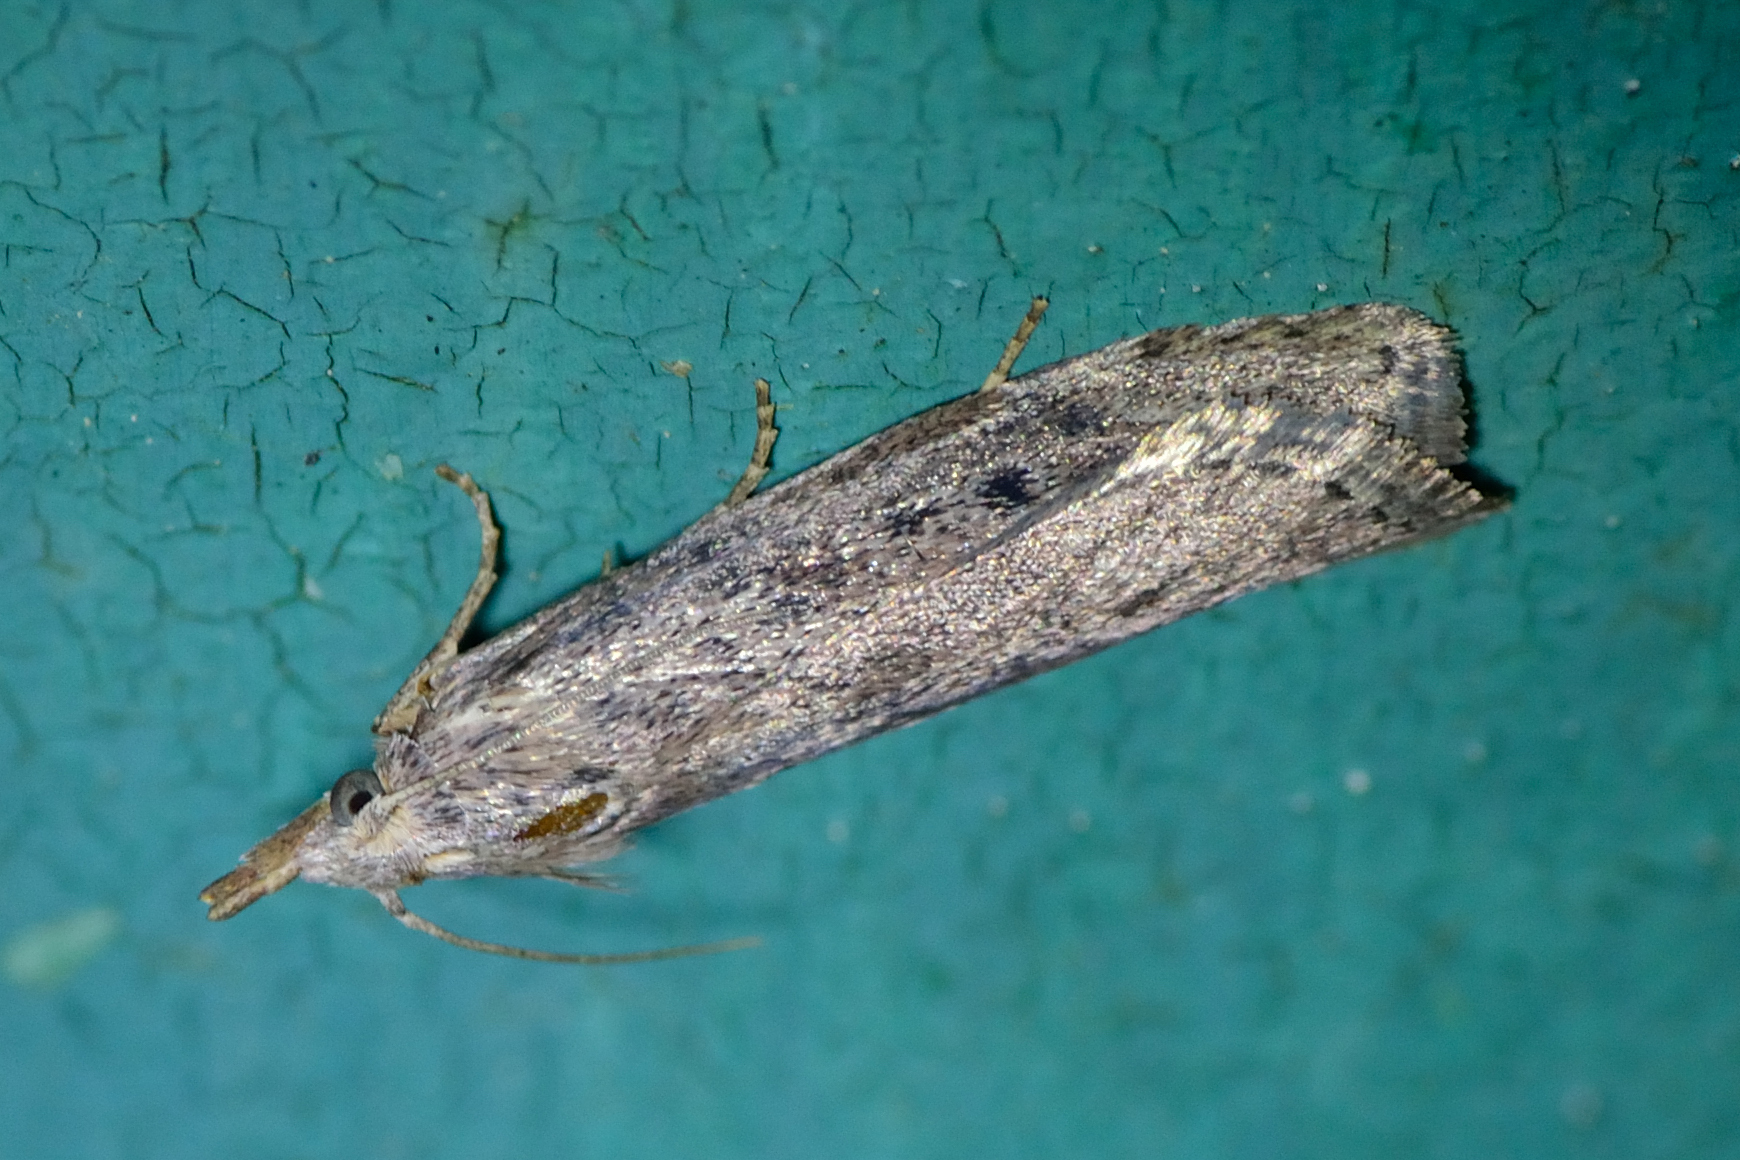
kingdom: Animalia
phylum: Arthropoda
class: Insecta
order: Lepidoptera
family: Pyralidae
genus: Aphomia
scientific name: Aphomia sociella
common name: Bee moth
